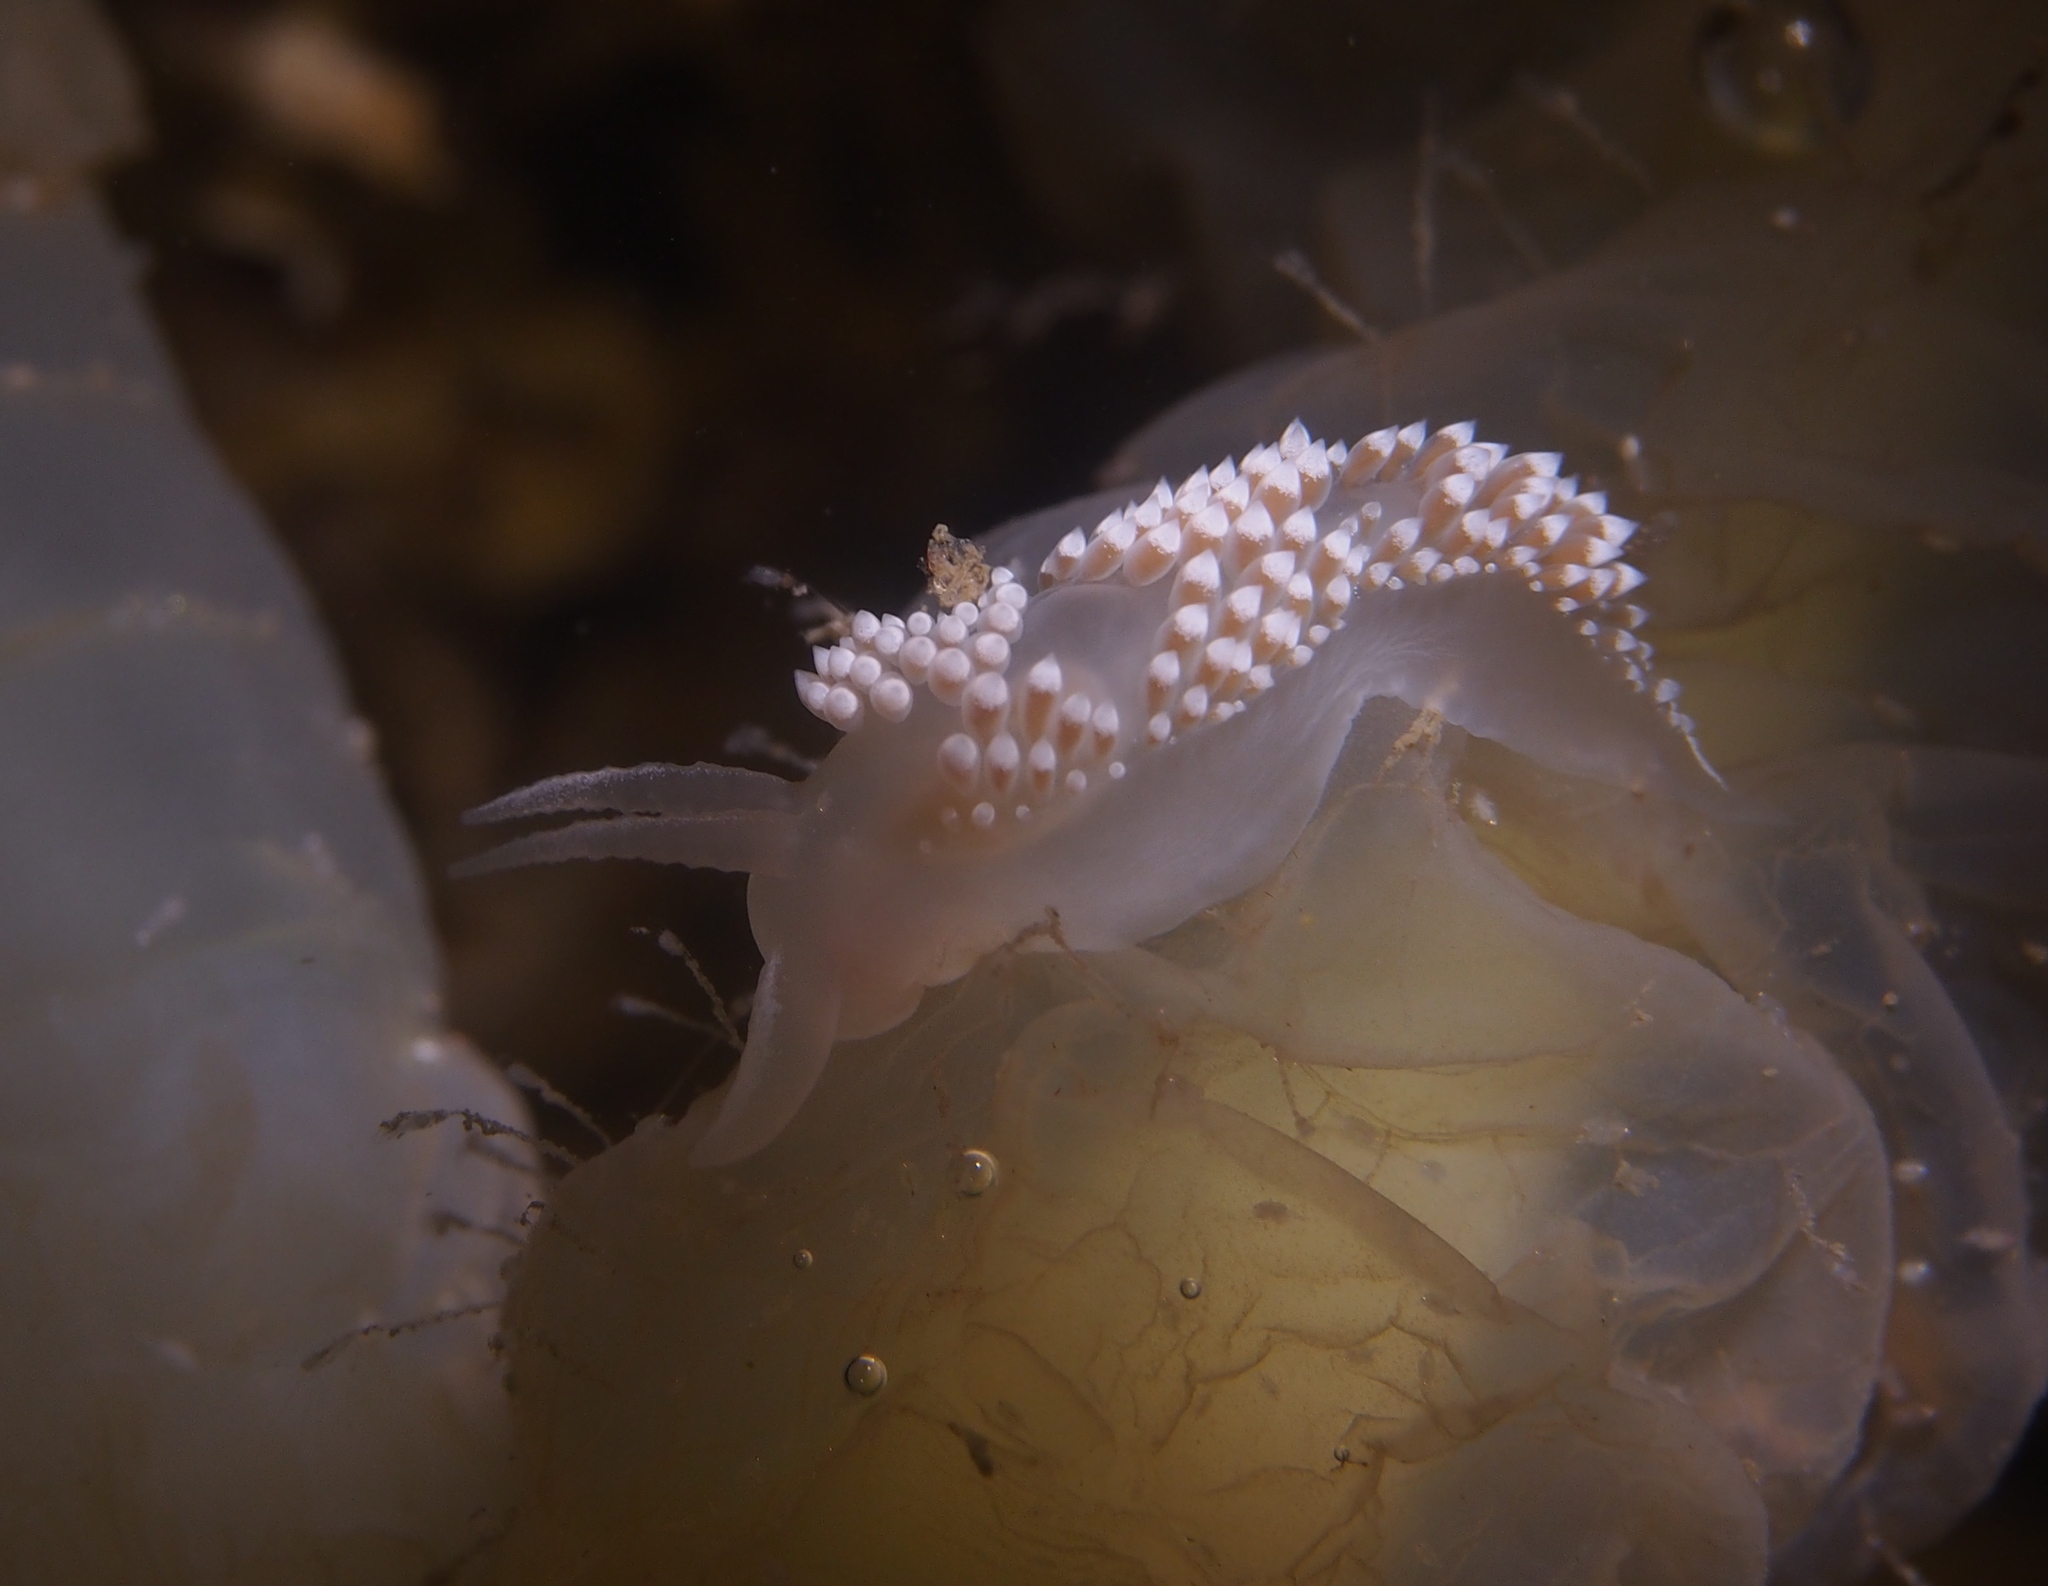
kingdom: Animalia
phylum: Mollusca
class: Gastropoda
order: Nudibranchia
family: Coryphellidae
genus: Coryphella
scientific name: Coryphella verrucosa
